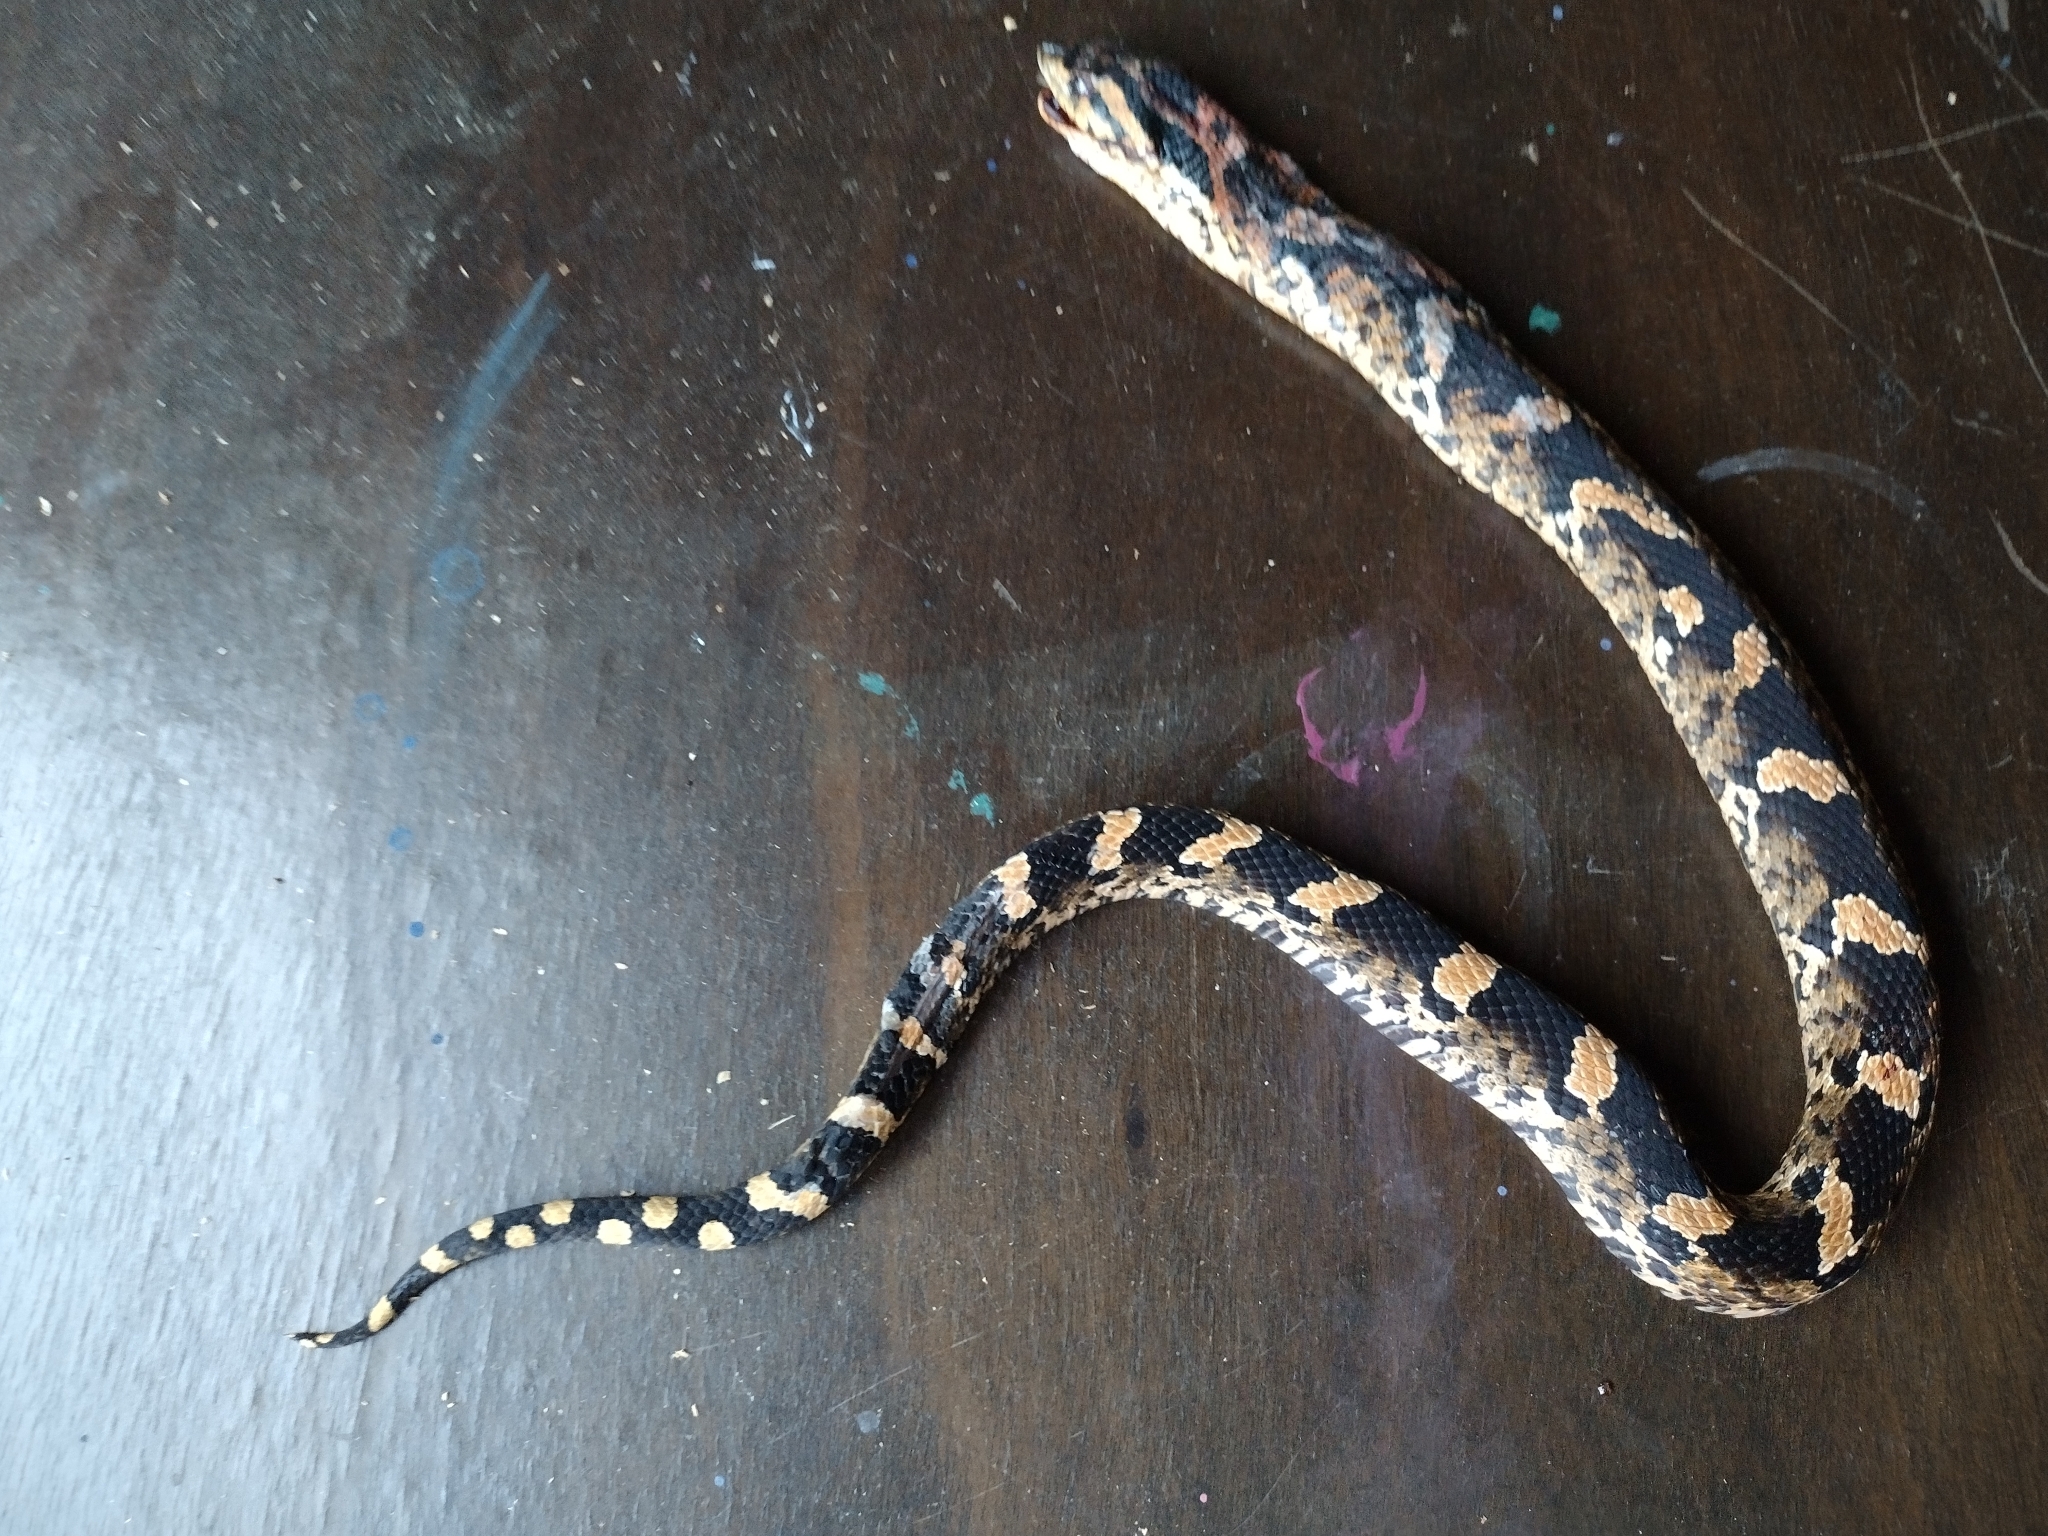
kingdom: Animalia
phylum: Chordata
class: Squamata
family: Colubridae
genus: Heterodon
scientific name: Heterodon platirhinos
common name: Eastern hognose snake
